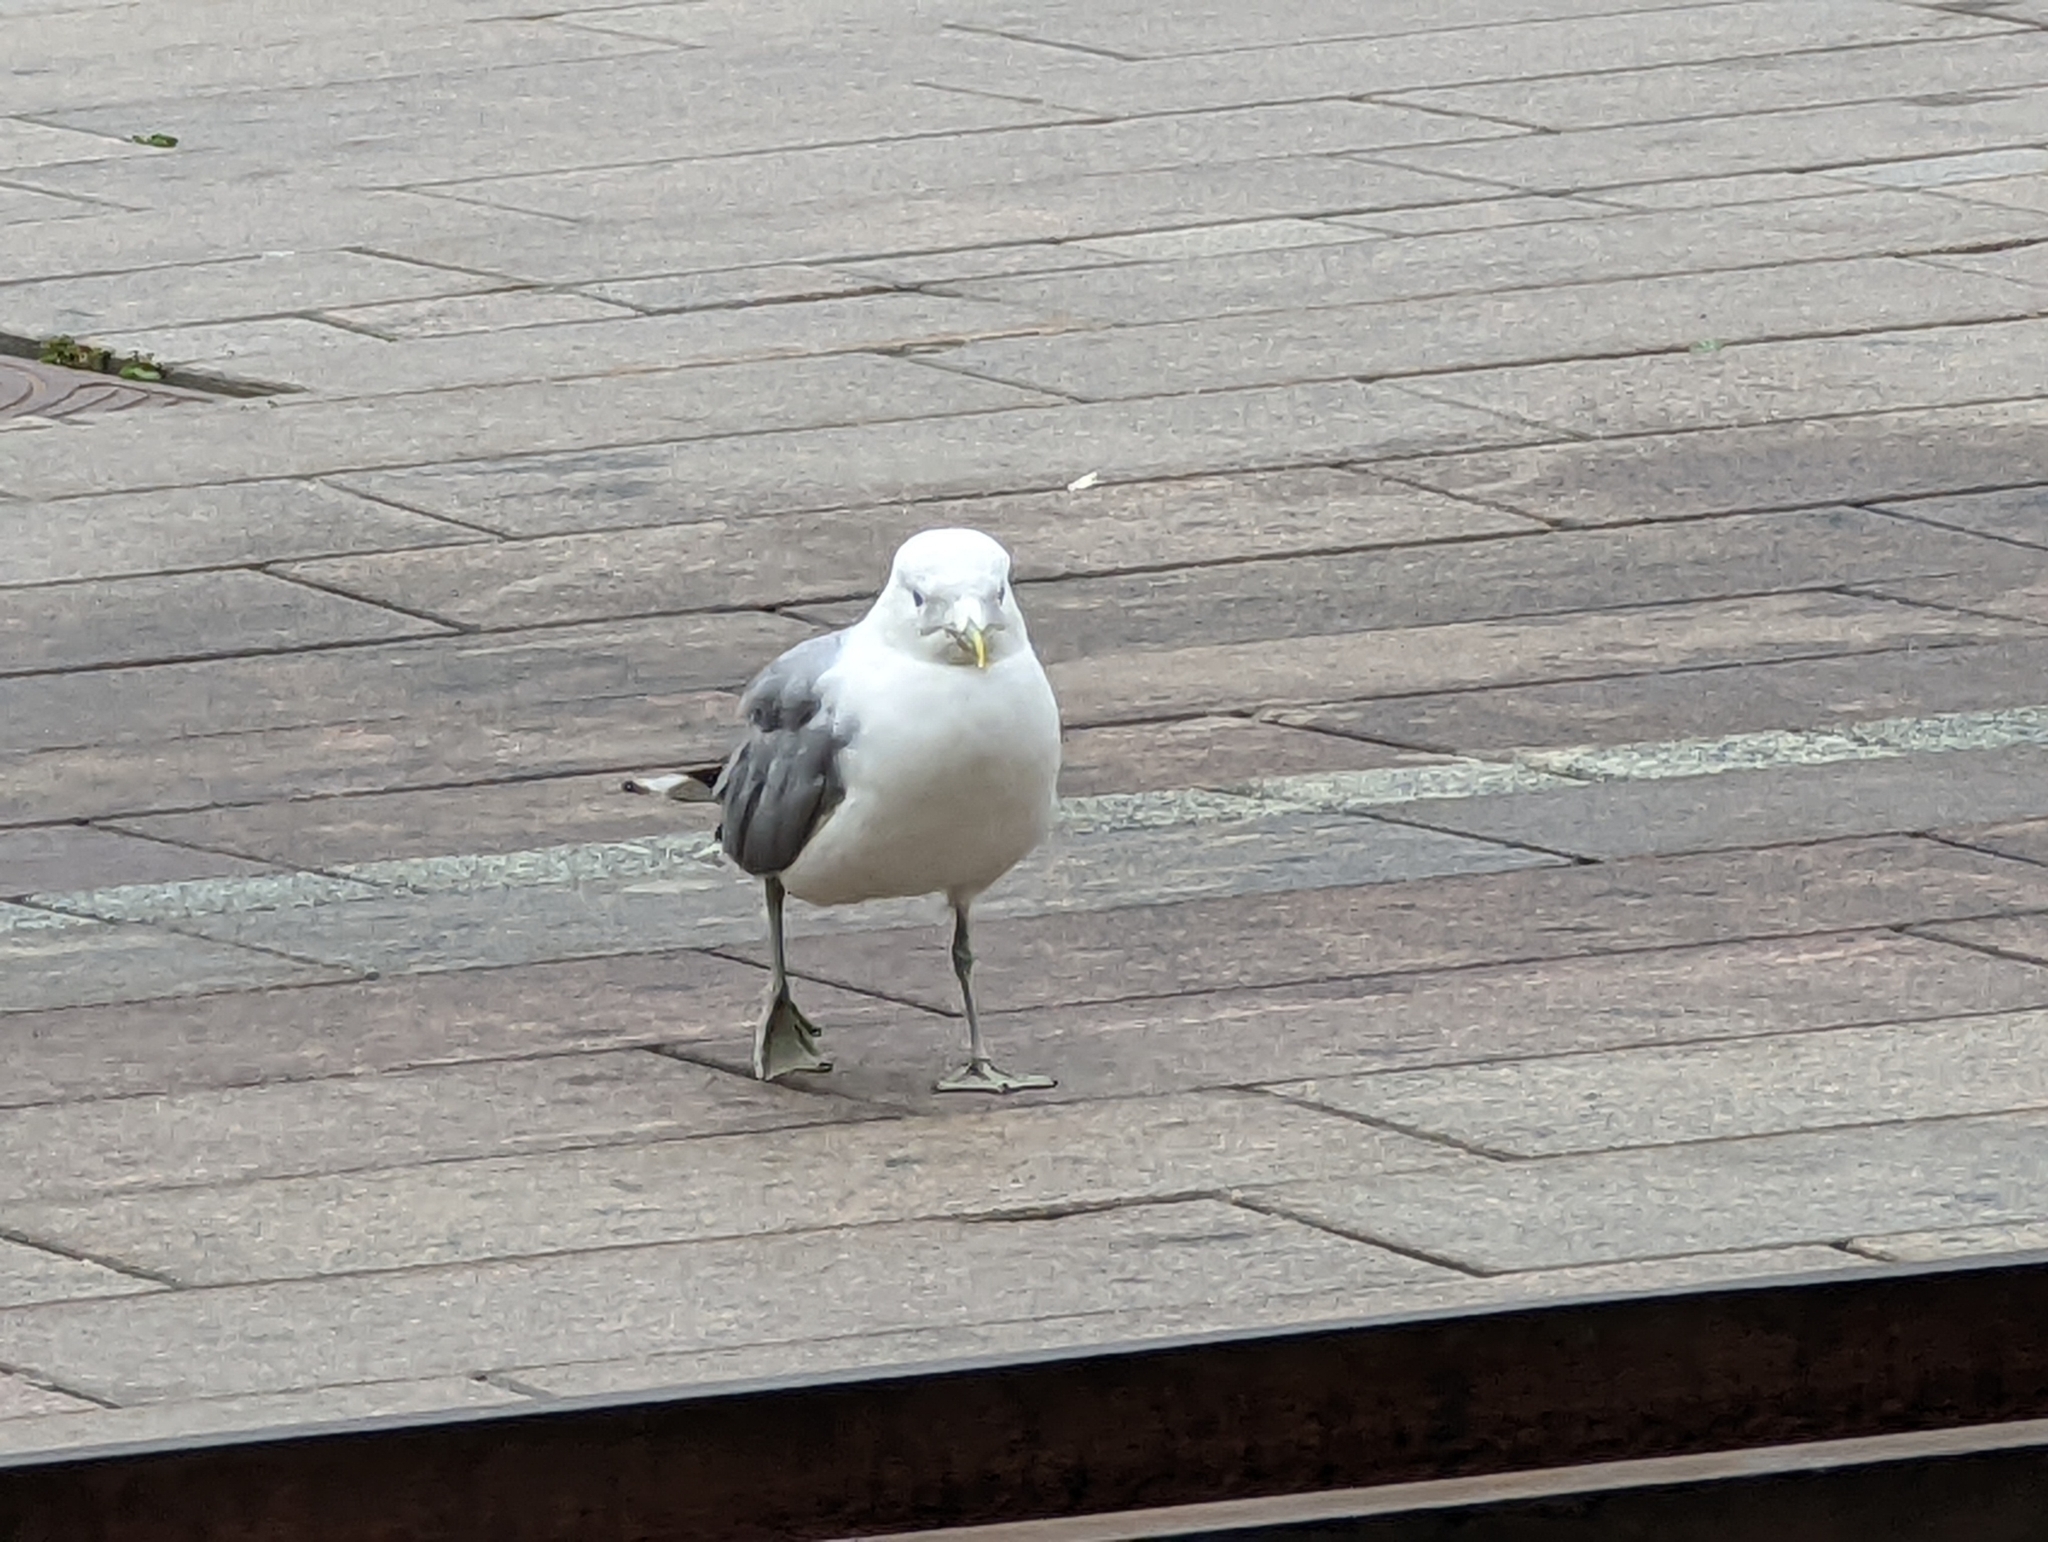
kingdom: Animalia
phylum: Chordata
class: Aves
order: Charadriiformes
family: Laridae
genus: Larus
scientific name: Larus canus
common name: Mew gull
